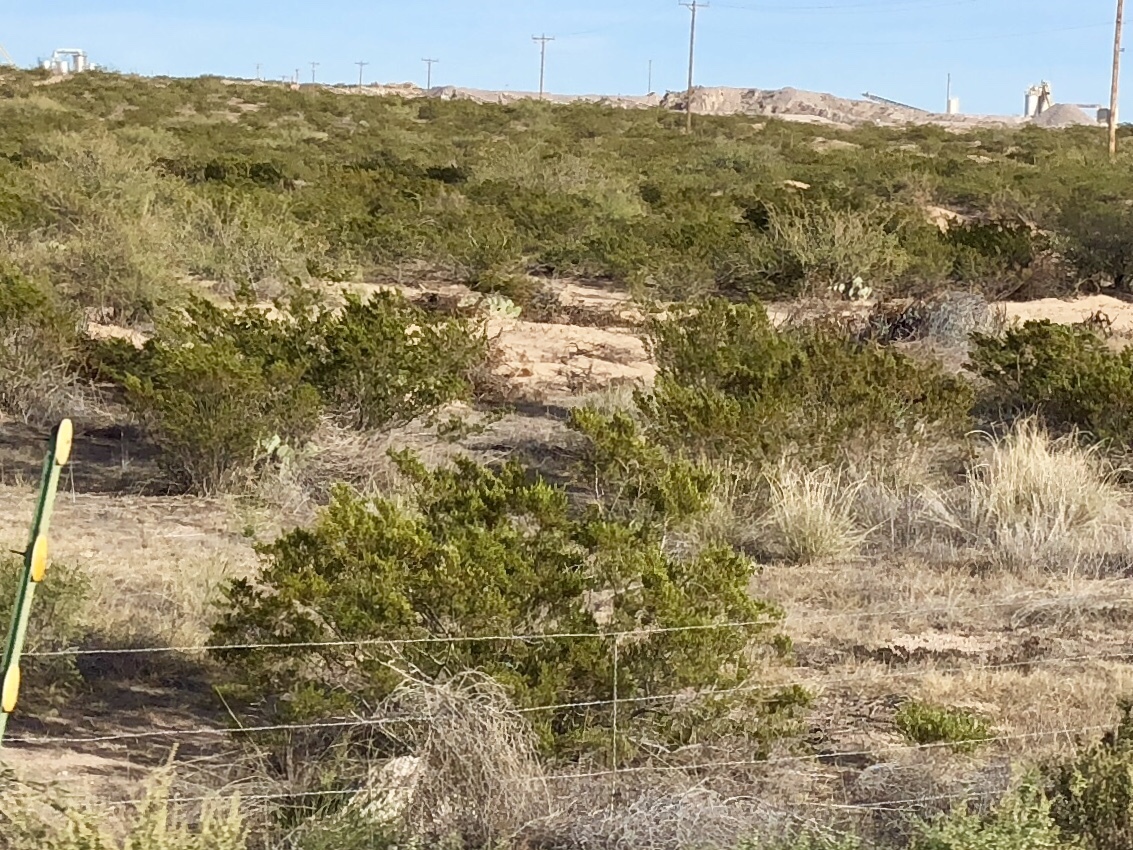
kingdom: Plantae
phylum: Tracheophyta
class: Magnoliopsida
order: Zygophyllales
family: Zygophyllaceae
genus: Larrea
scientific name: Larrea tridentata
